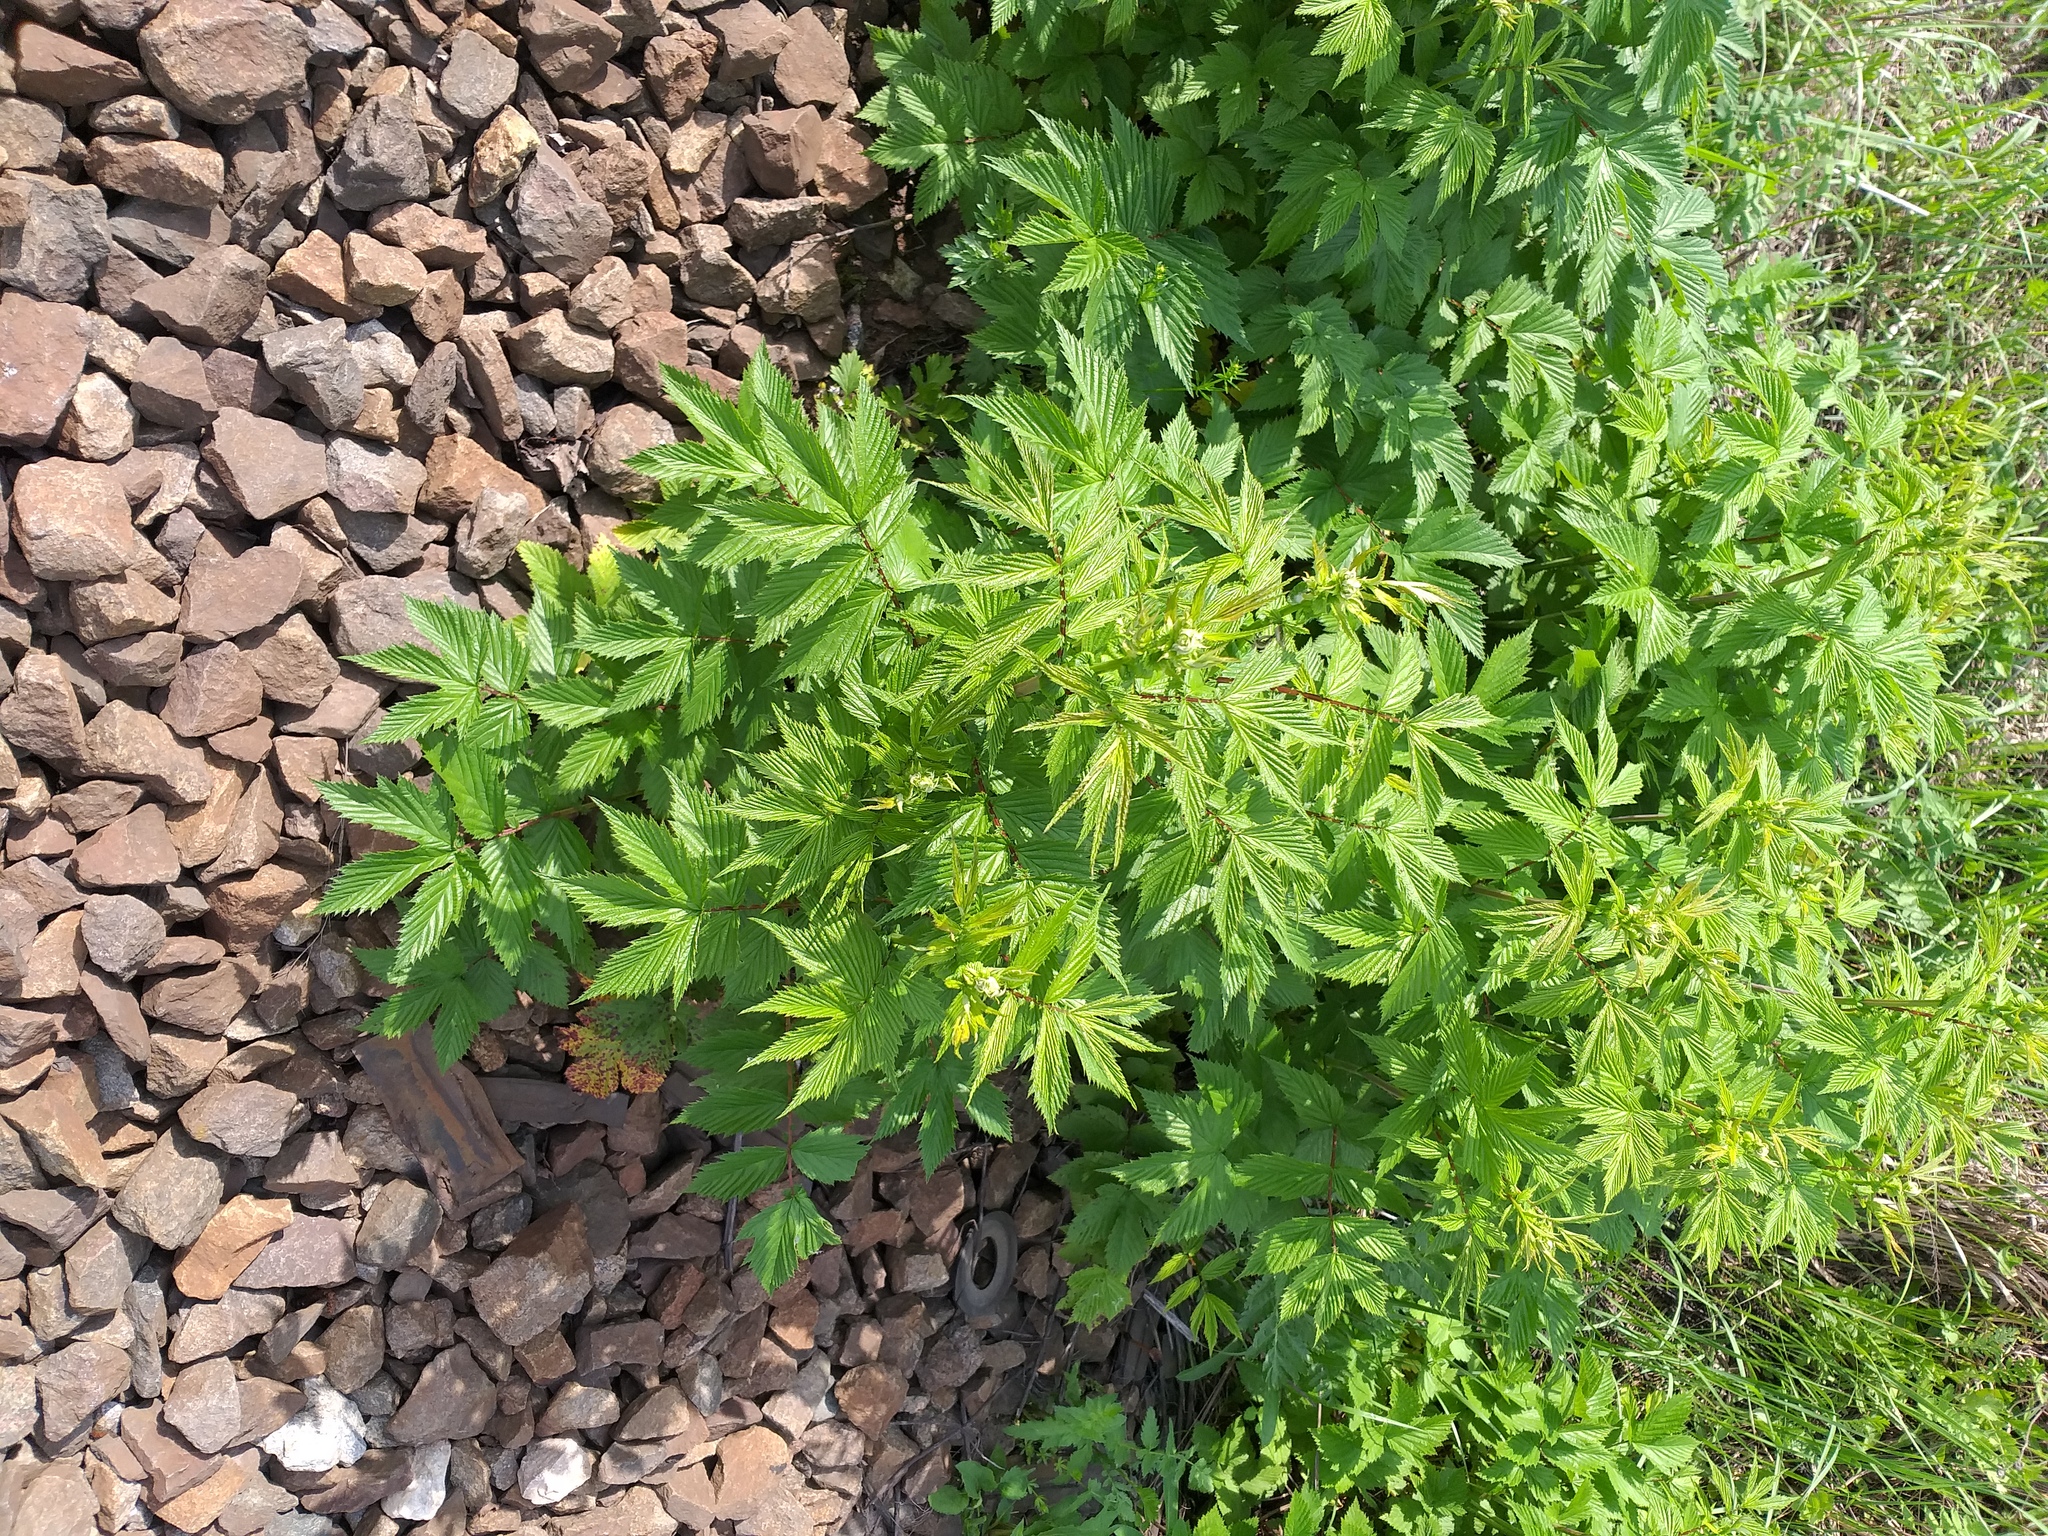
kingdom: Plantae
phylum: Tracheophyta
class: Magnoliopsida
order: Rosales
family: Rosaceae
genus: Filipendula
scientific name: Filipendula ulmaria
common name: Meadowsweet
